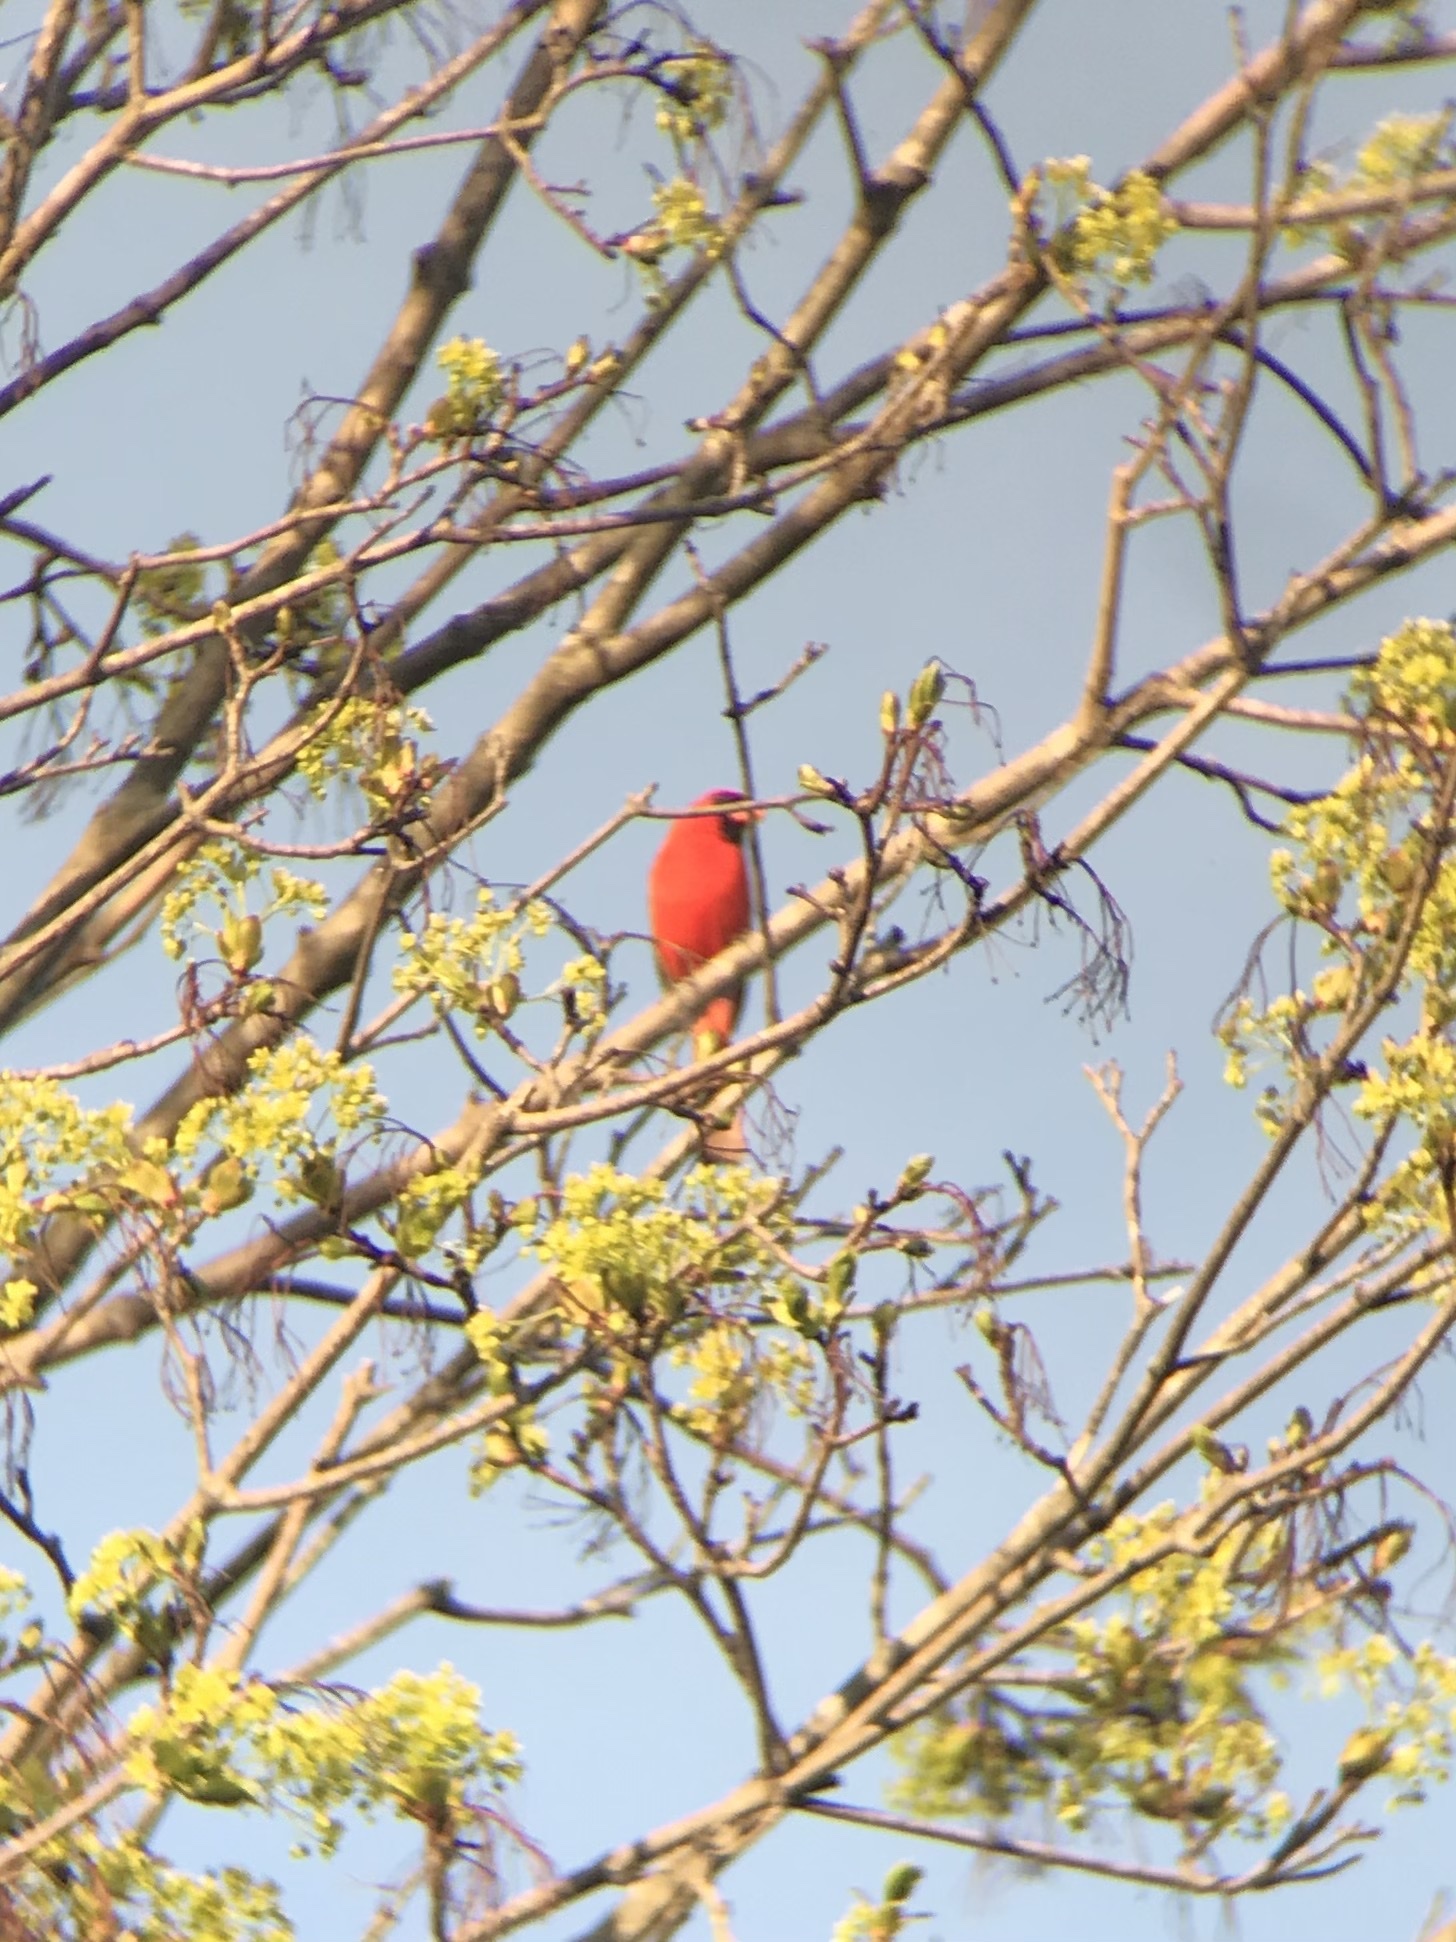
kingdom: Animalia
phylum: Chordata
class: Aves
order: Passeriformes
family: Cardinalidae
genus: Cardinalis
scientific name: Cardinalis cardinalis
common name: Northern cardinal
